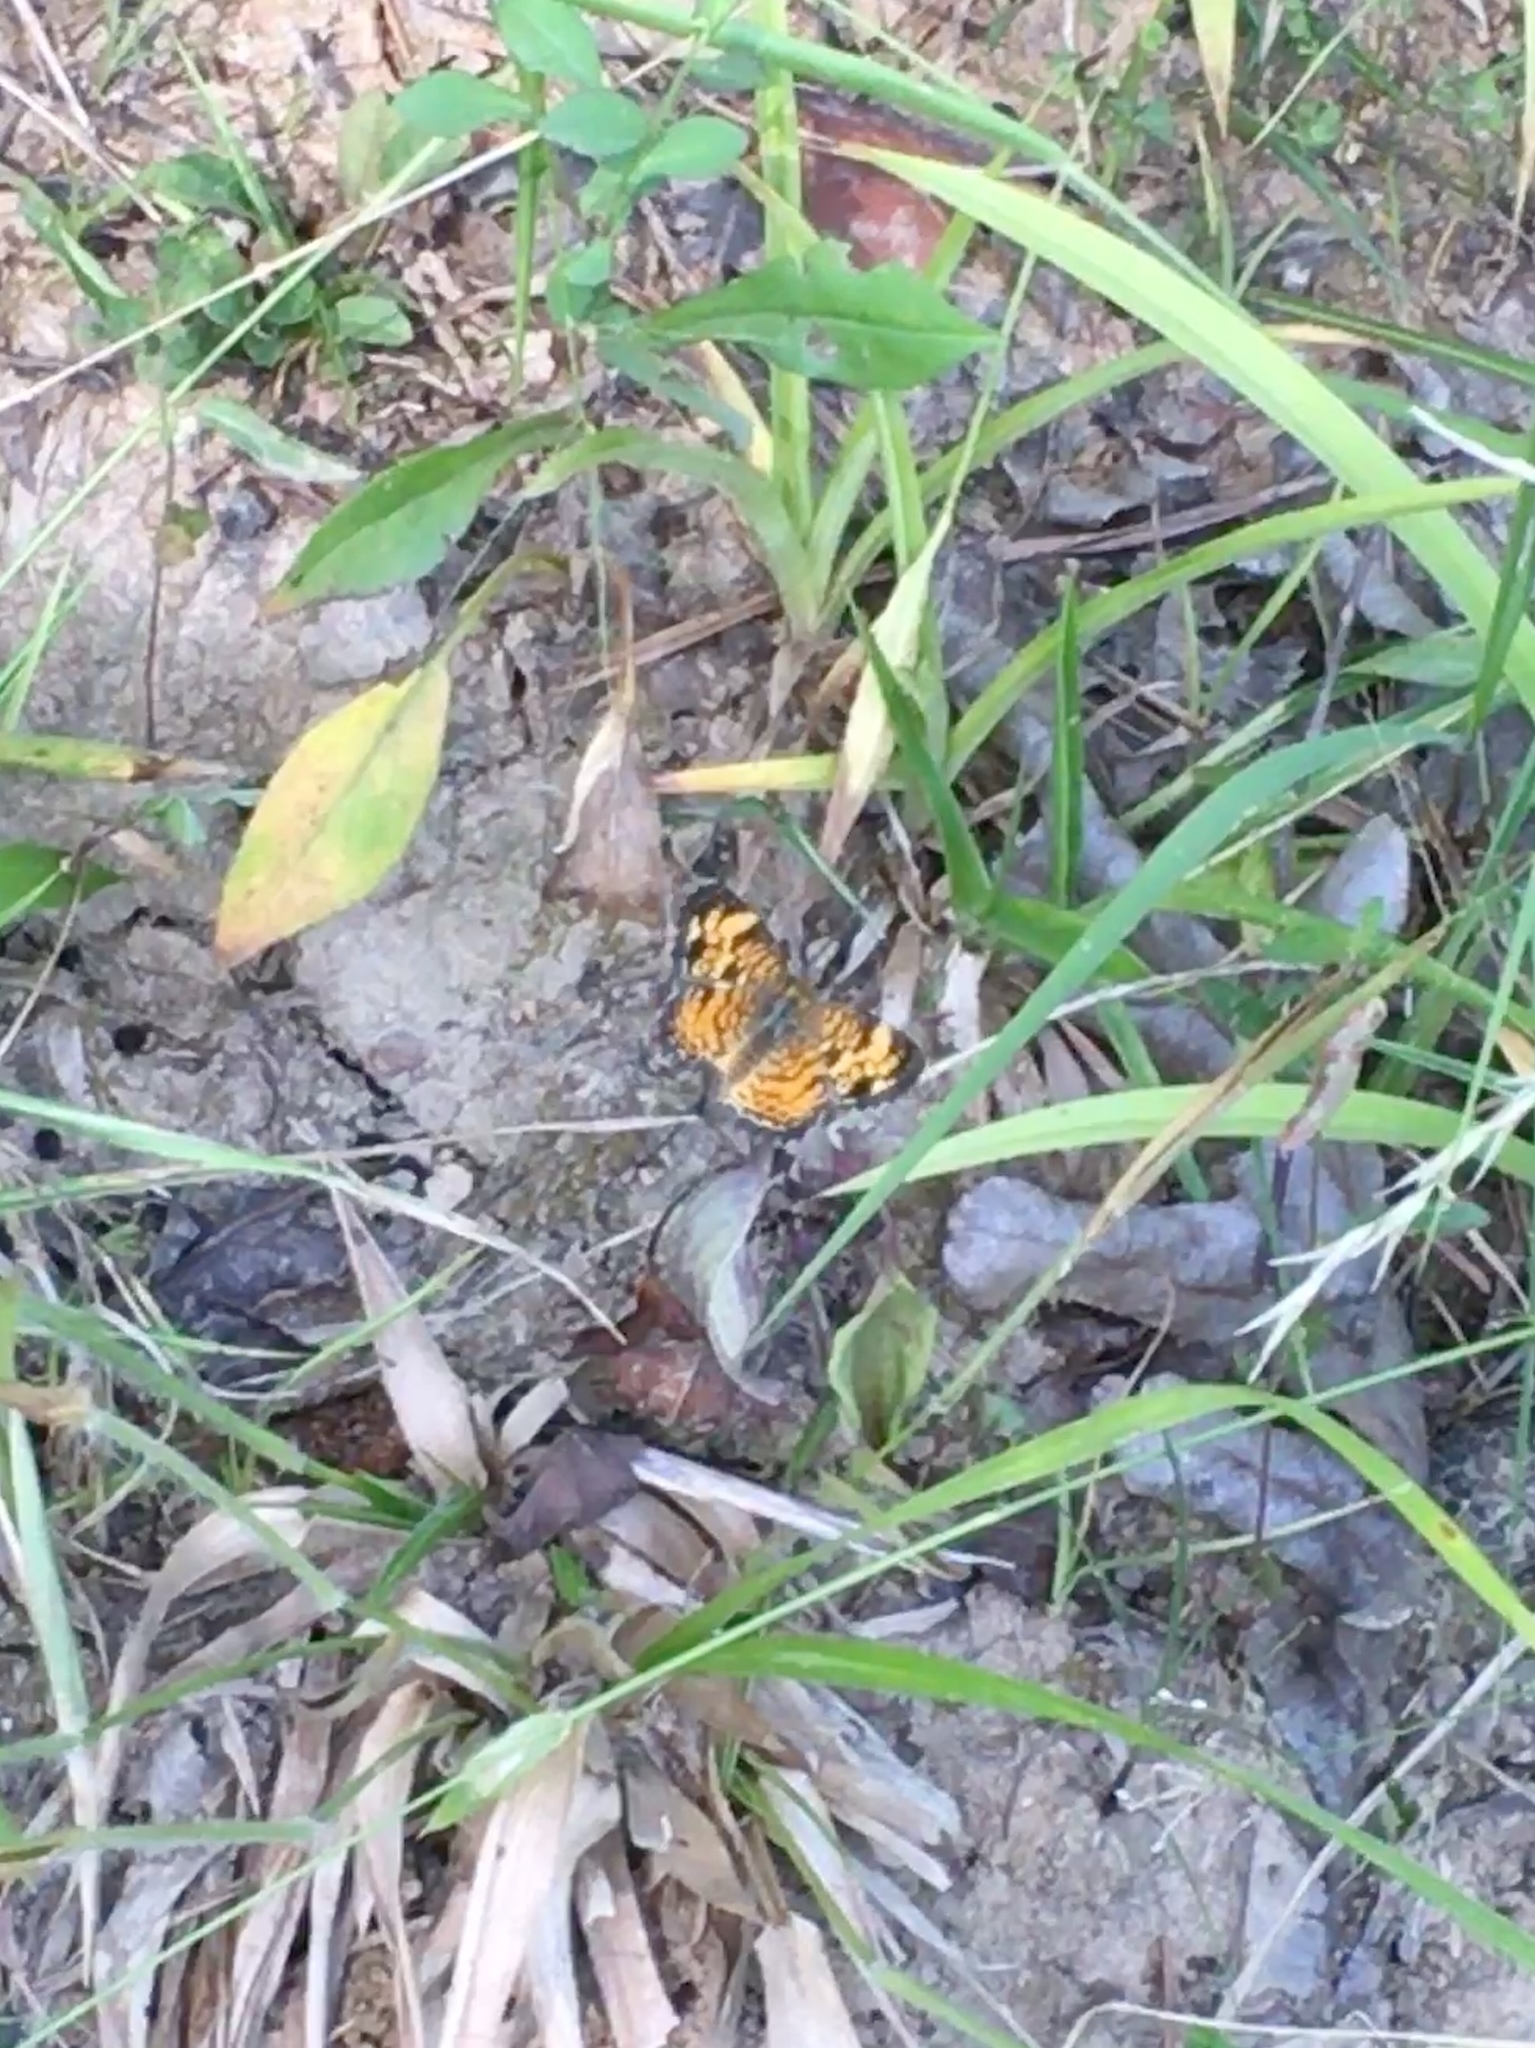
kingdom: Animalia
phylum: Arthropoda
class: Insecta
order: Lepidoptera
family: Nymphalidae
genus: Phyciodes
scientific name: Phyciodes tharos
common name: Pearl crescent
